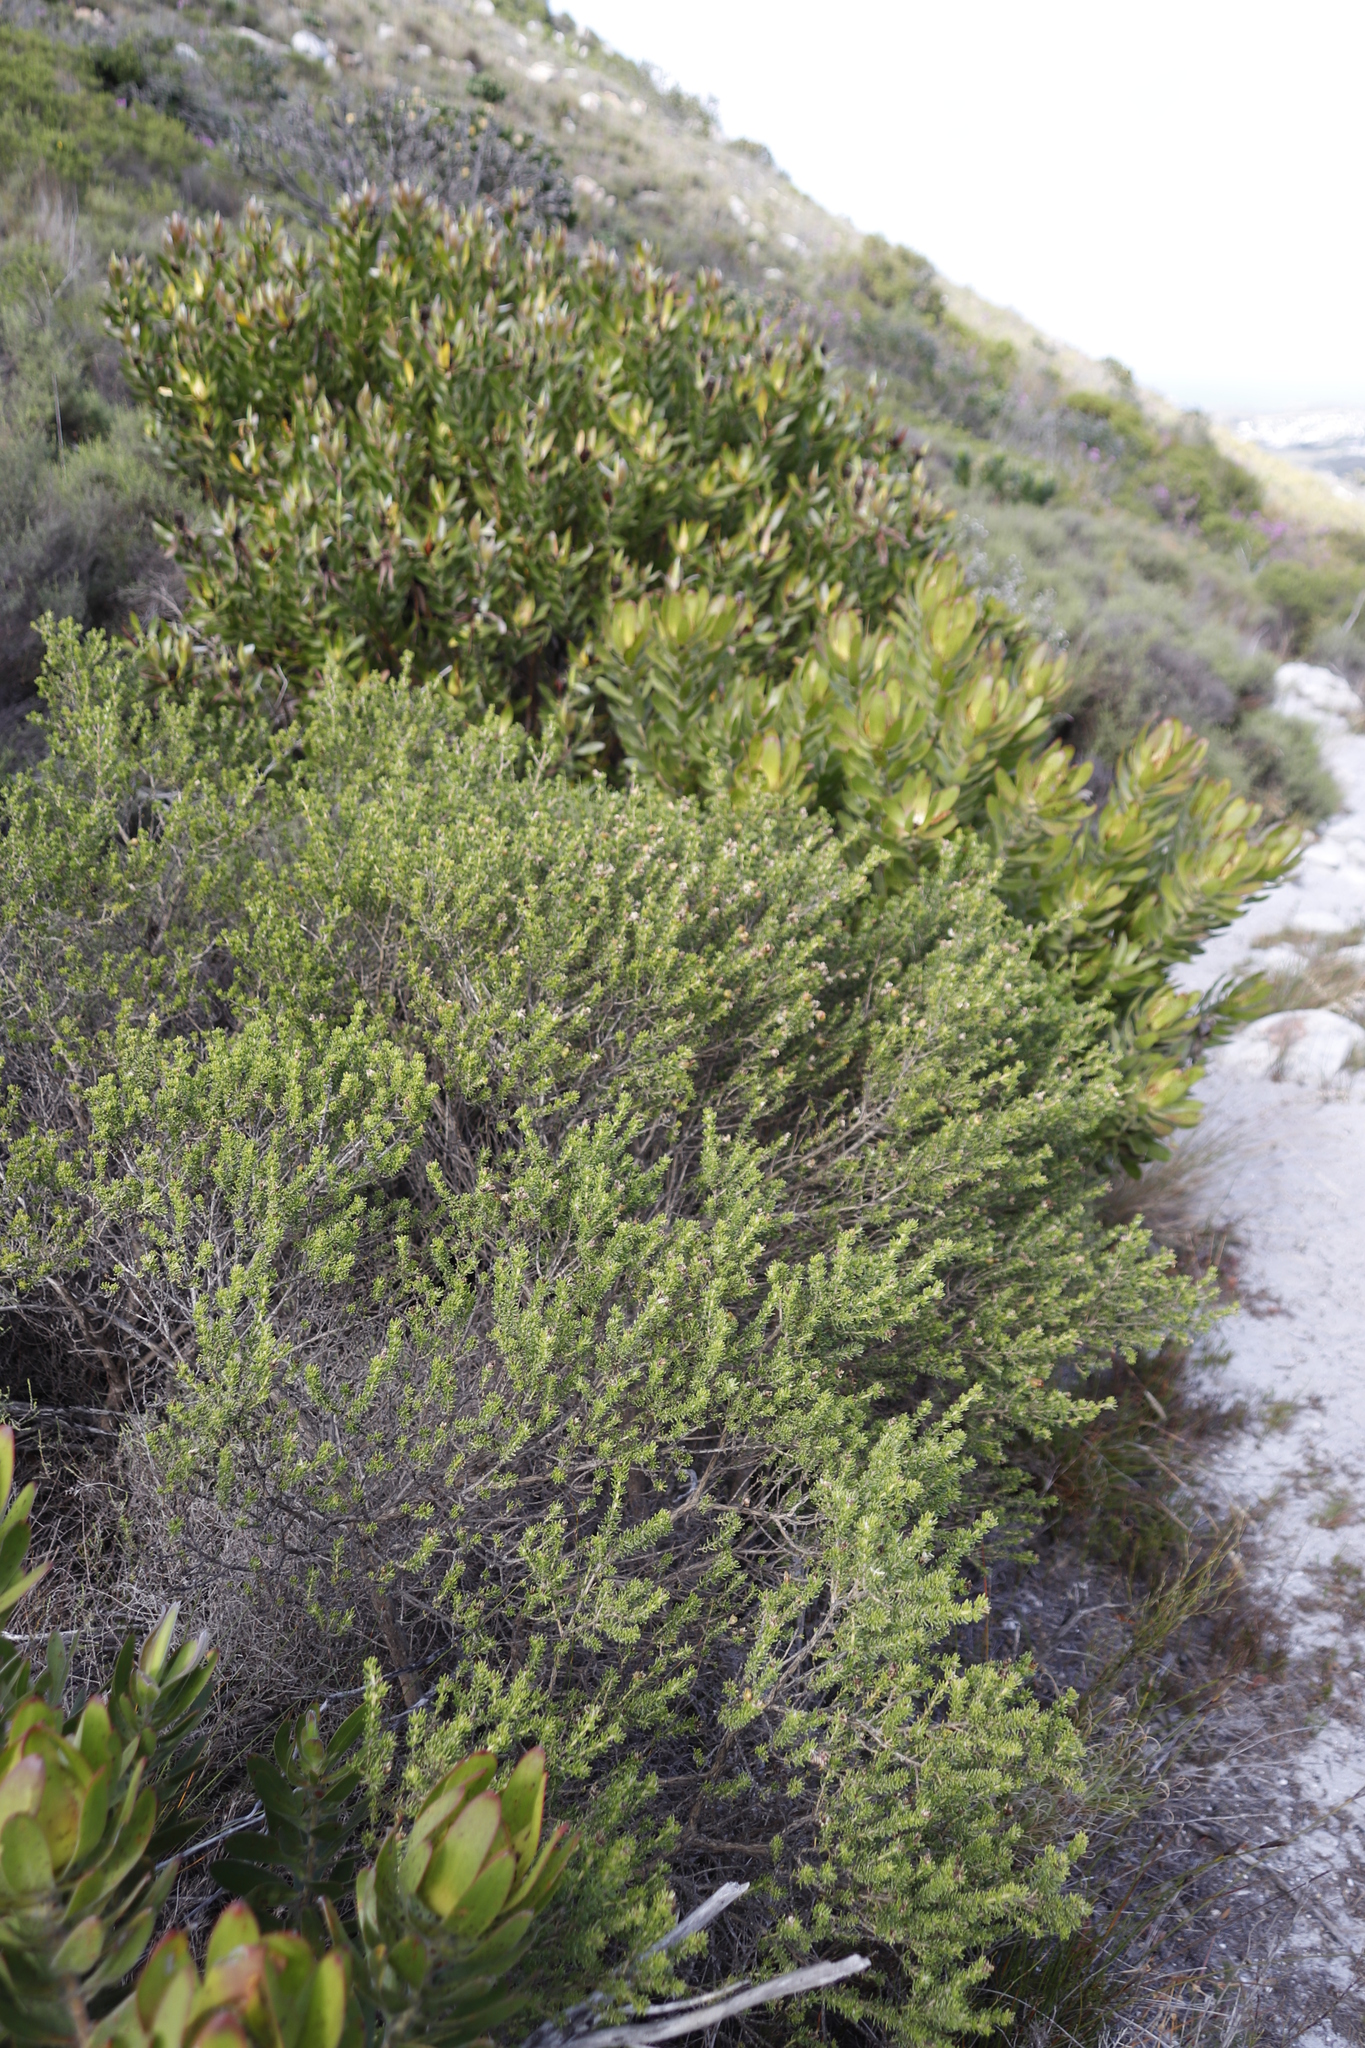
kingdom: Plantae
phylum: Tracheophyta
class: Magnoliopsida
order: Proteales
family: Proteaceae
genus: Leucadendron
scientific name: Leucadendron laureolum
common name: Golden sunshinebush
